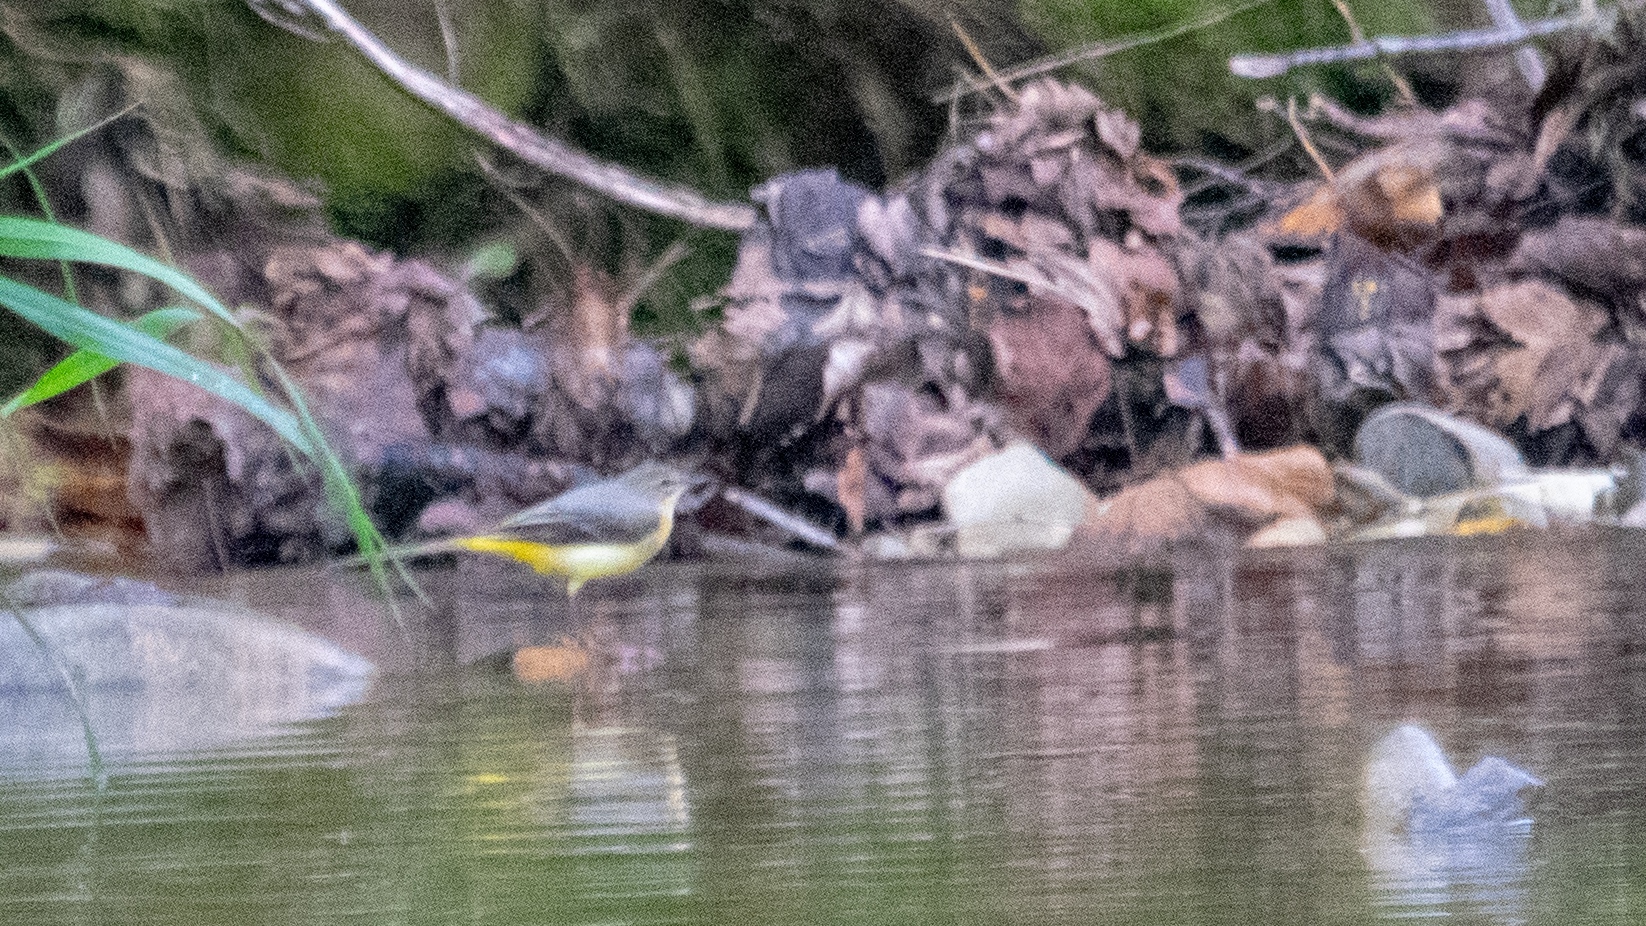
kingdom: Animalia
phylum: Chordata
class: Aves
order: Passeriformes
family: Motacillidae
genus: Motacilla
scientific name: Motacilla cinerea
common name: Grey wagtail
